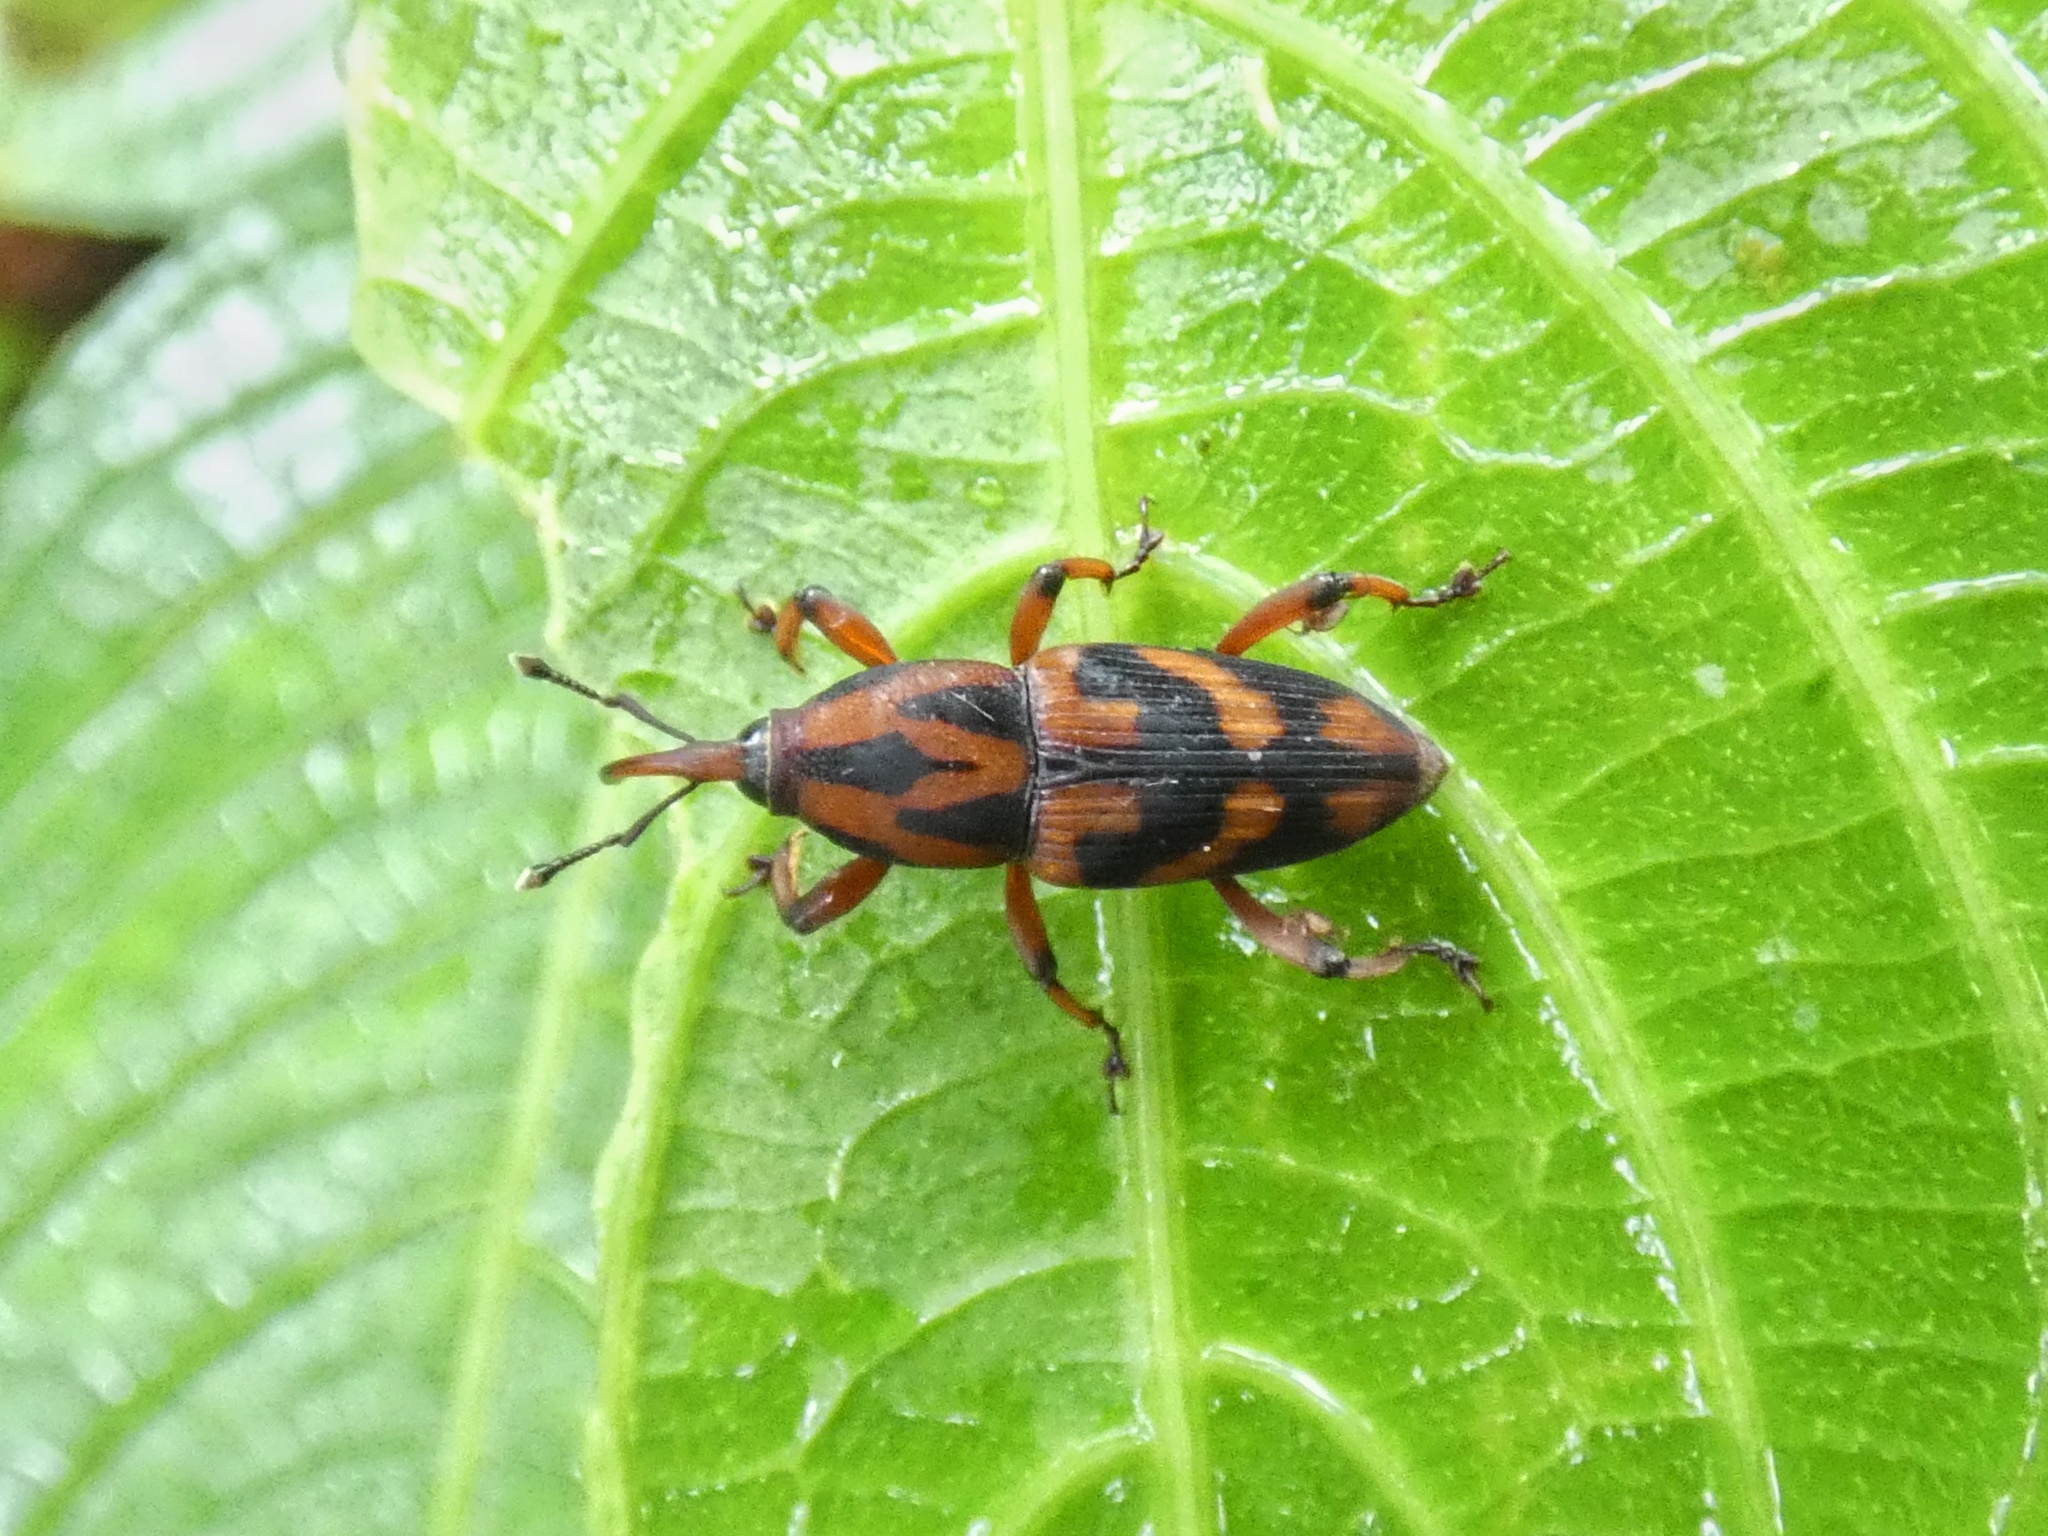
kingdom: Animalia
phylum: Arthropoda
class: Insecta
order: Coleoptera
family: Dryophthoridae
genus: Metamasius
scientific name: Metamasius dasyurus
